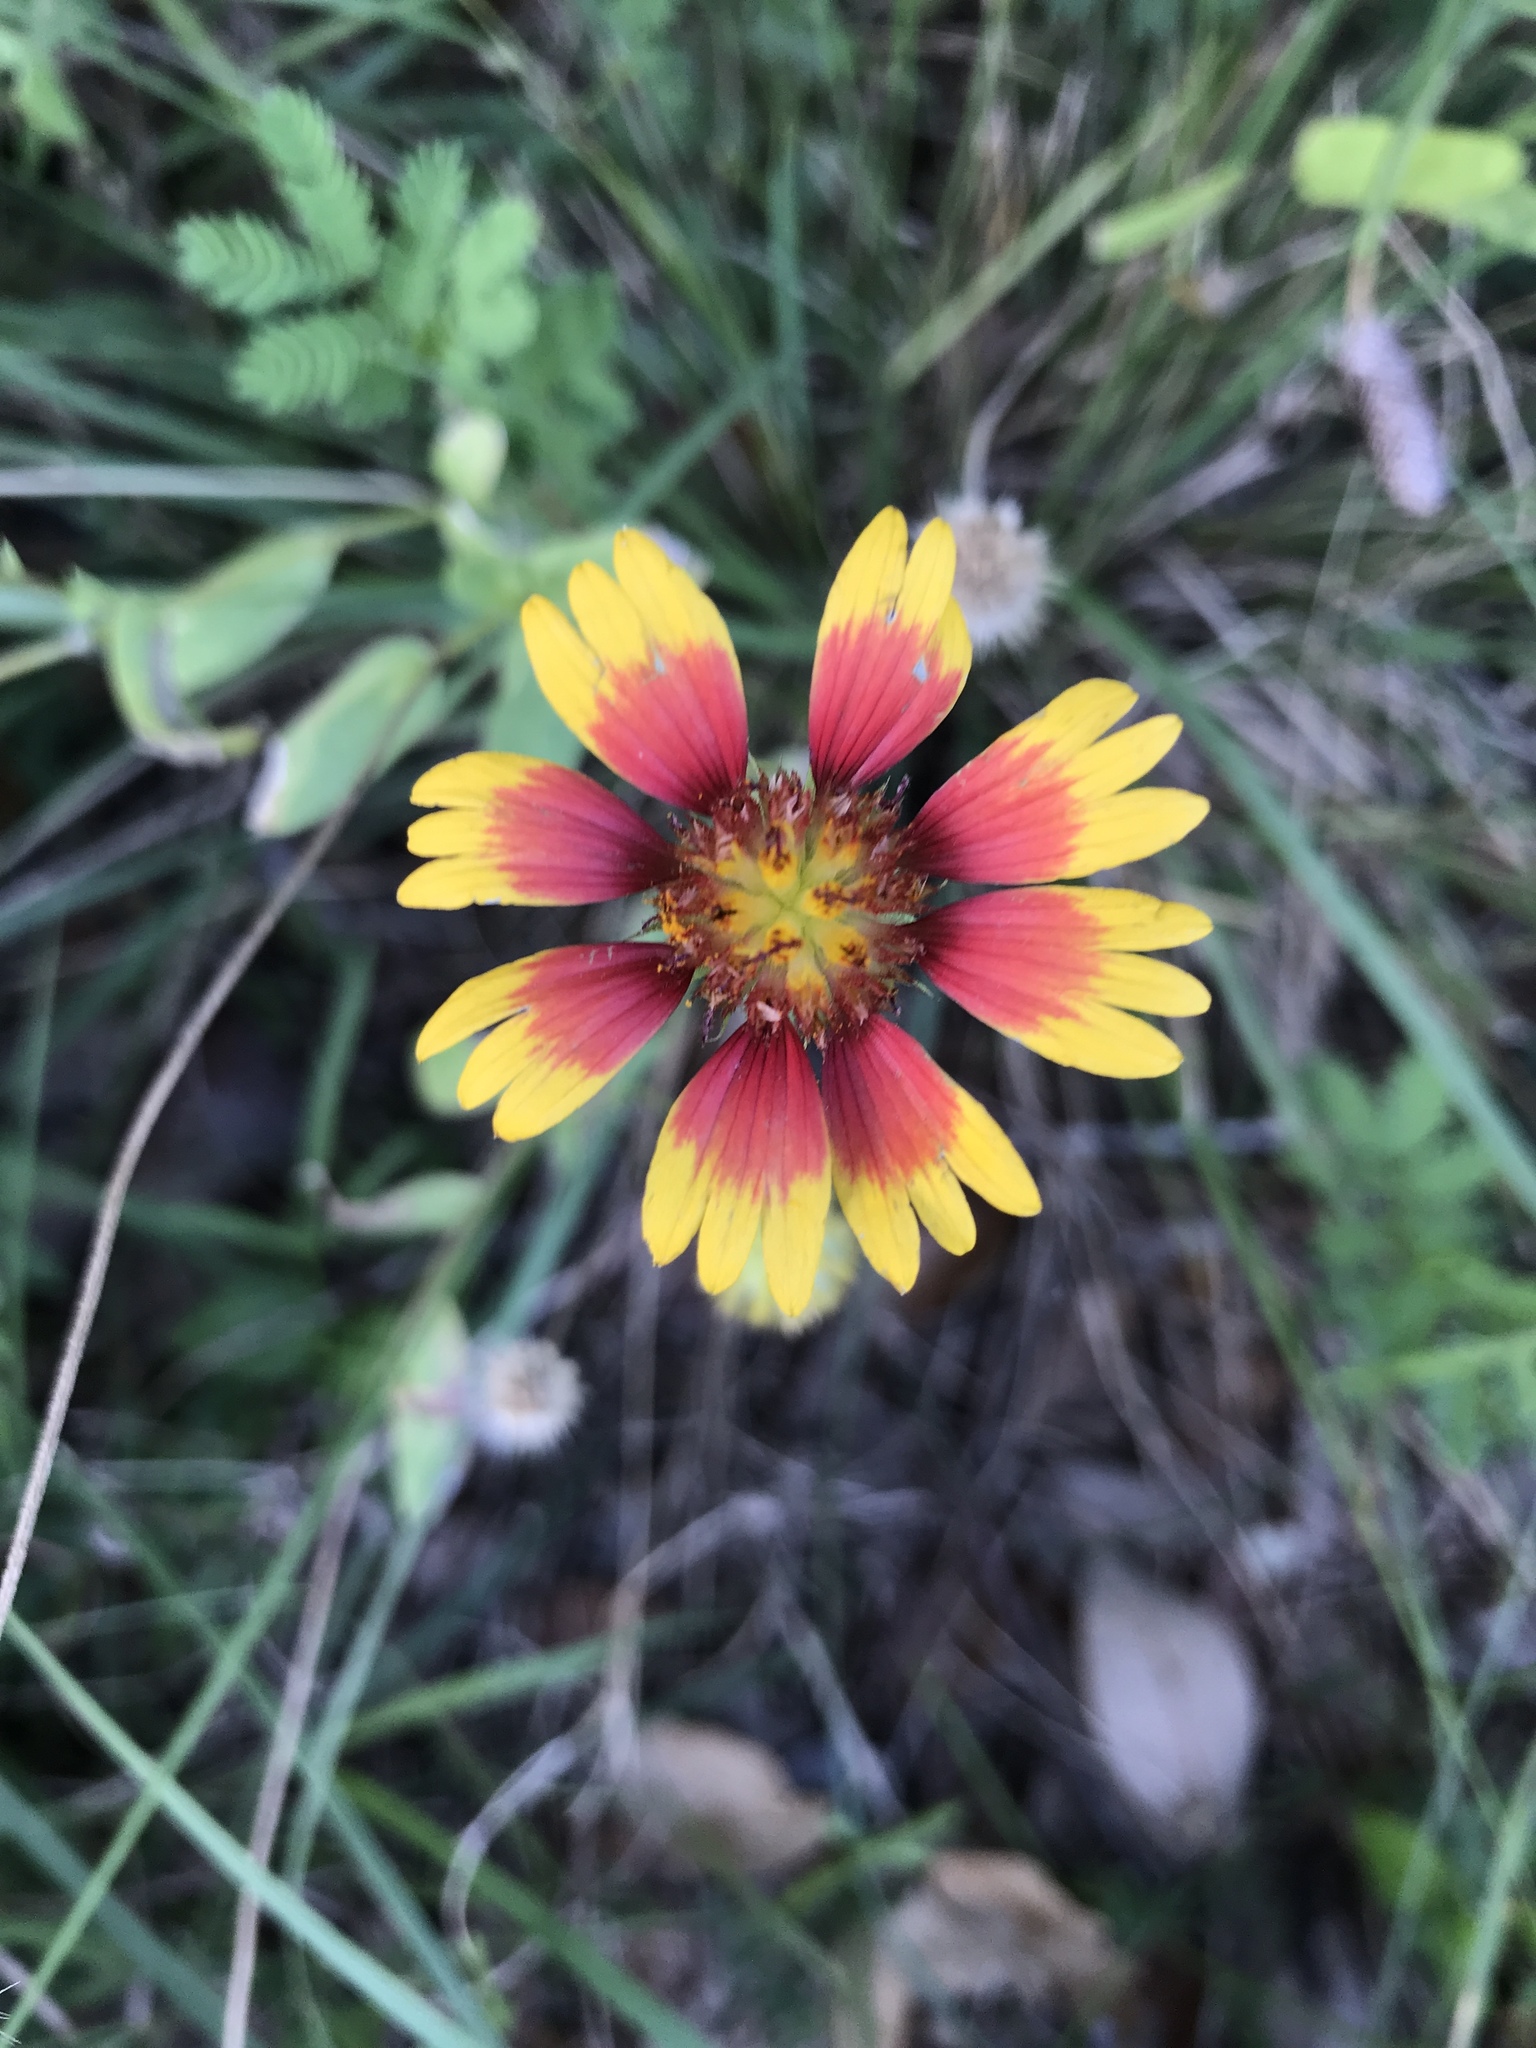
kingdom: Plantae
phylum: Tracheophyta
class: Magnoliopsida
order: Asterales
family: Asteraceae
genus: Gaillardia
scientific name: Gaillardia pulchella
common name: Firewheel
